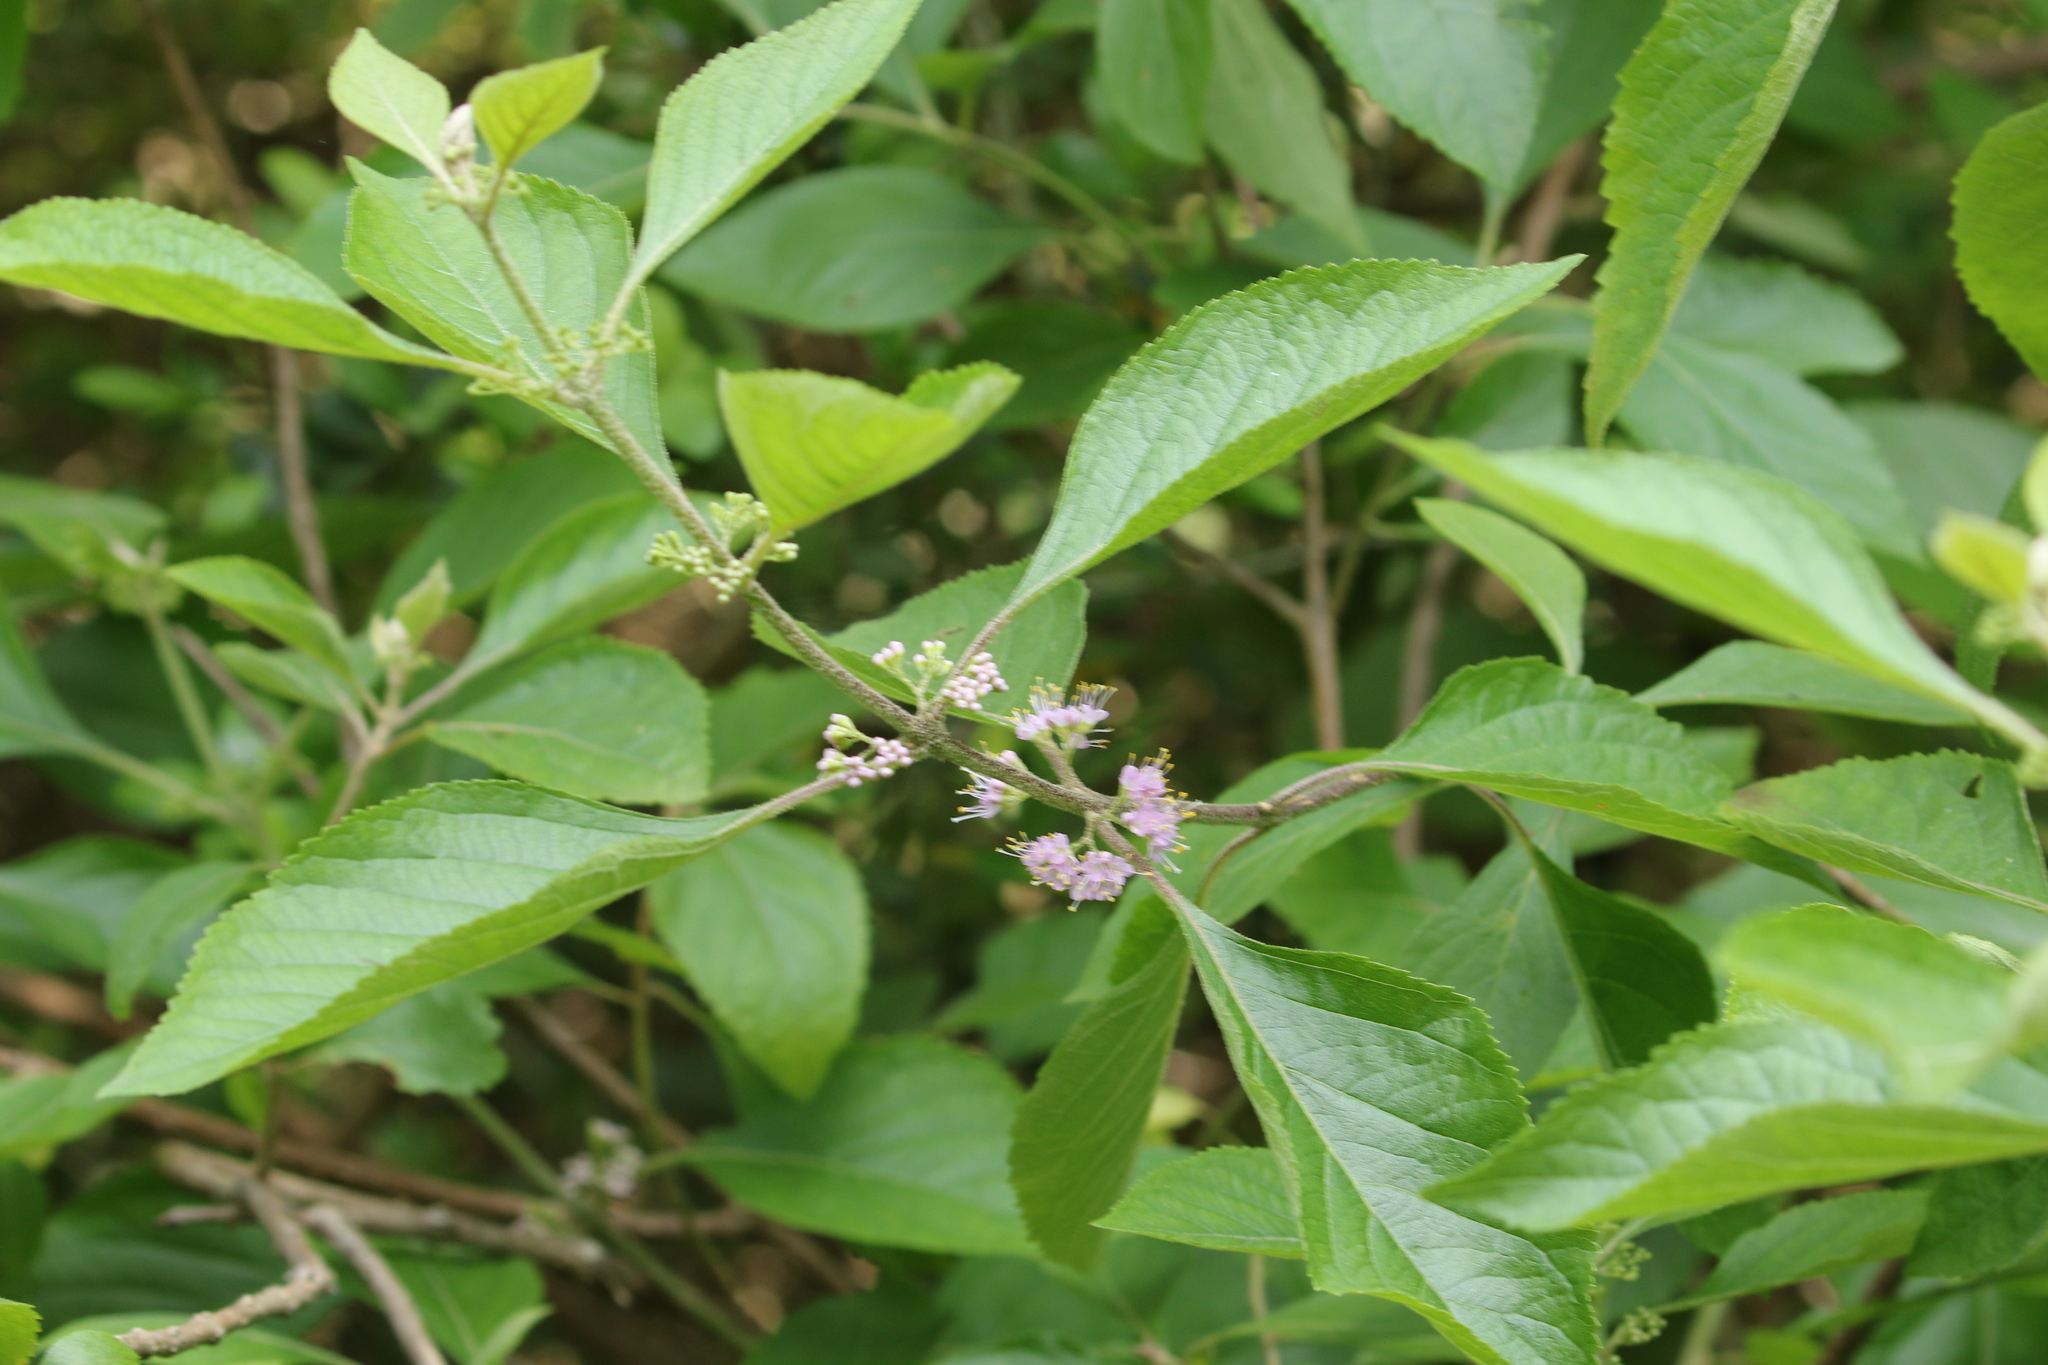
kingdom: Plantae
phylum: Tracheophyta
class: Magnoliopsida
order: Lamiales
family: Lamiaceae
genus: Callicarpa
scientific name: Callicarpa americana
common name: American beautyberry
